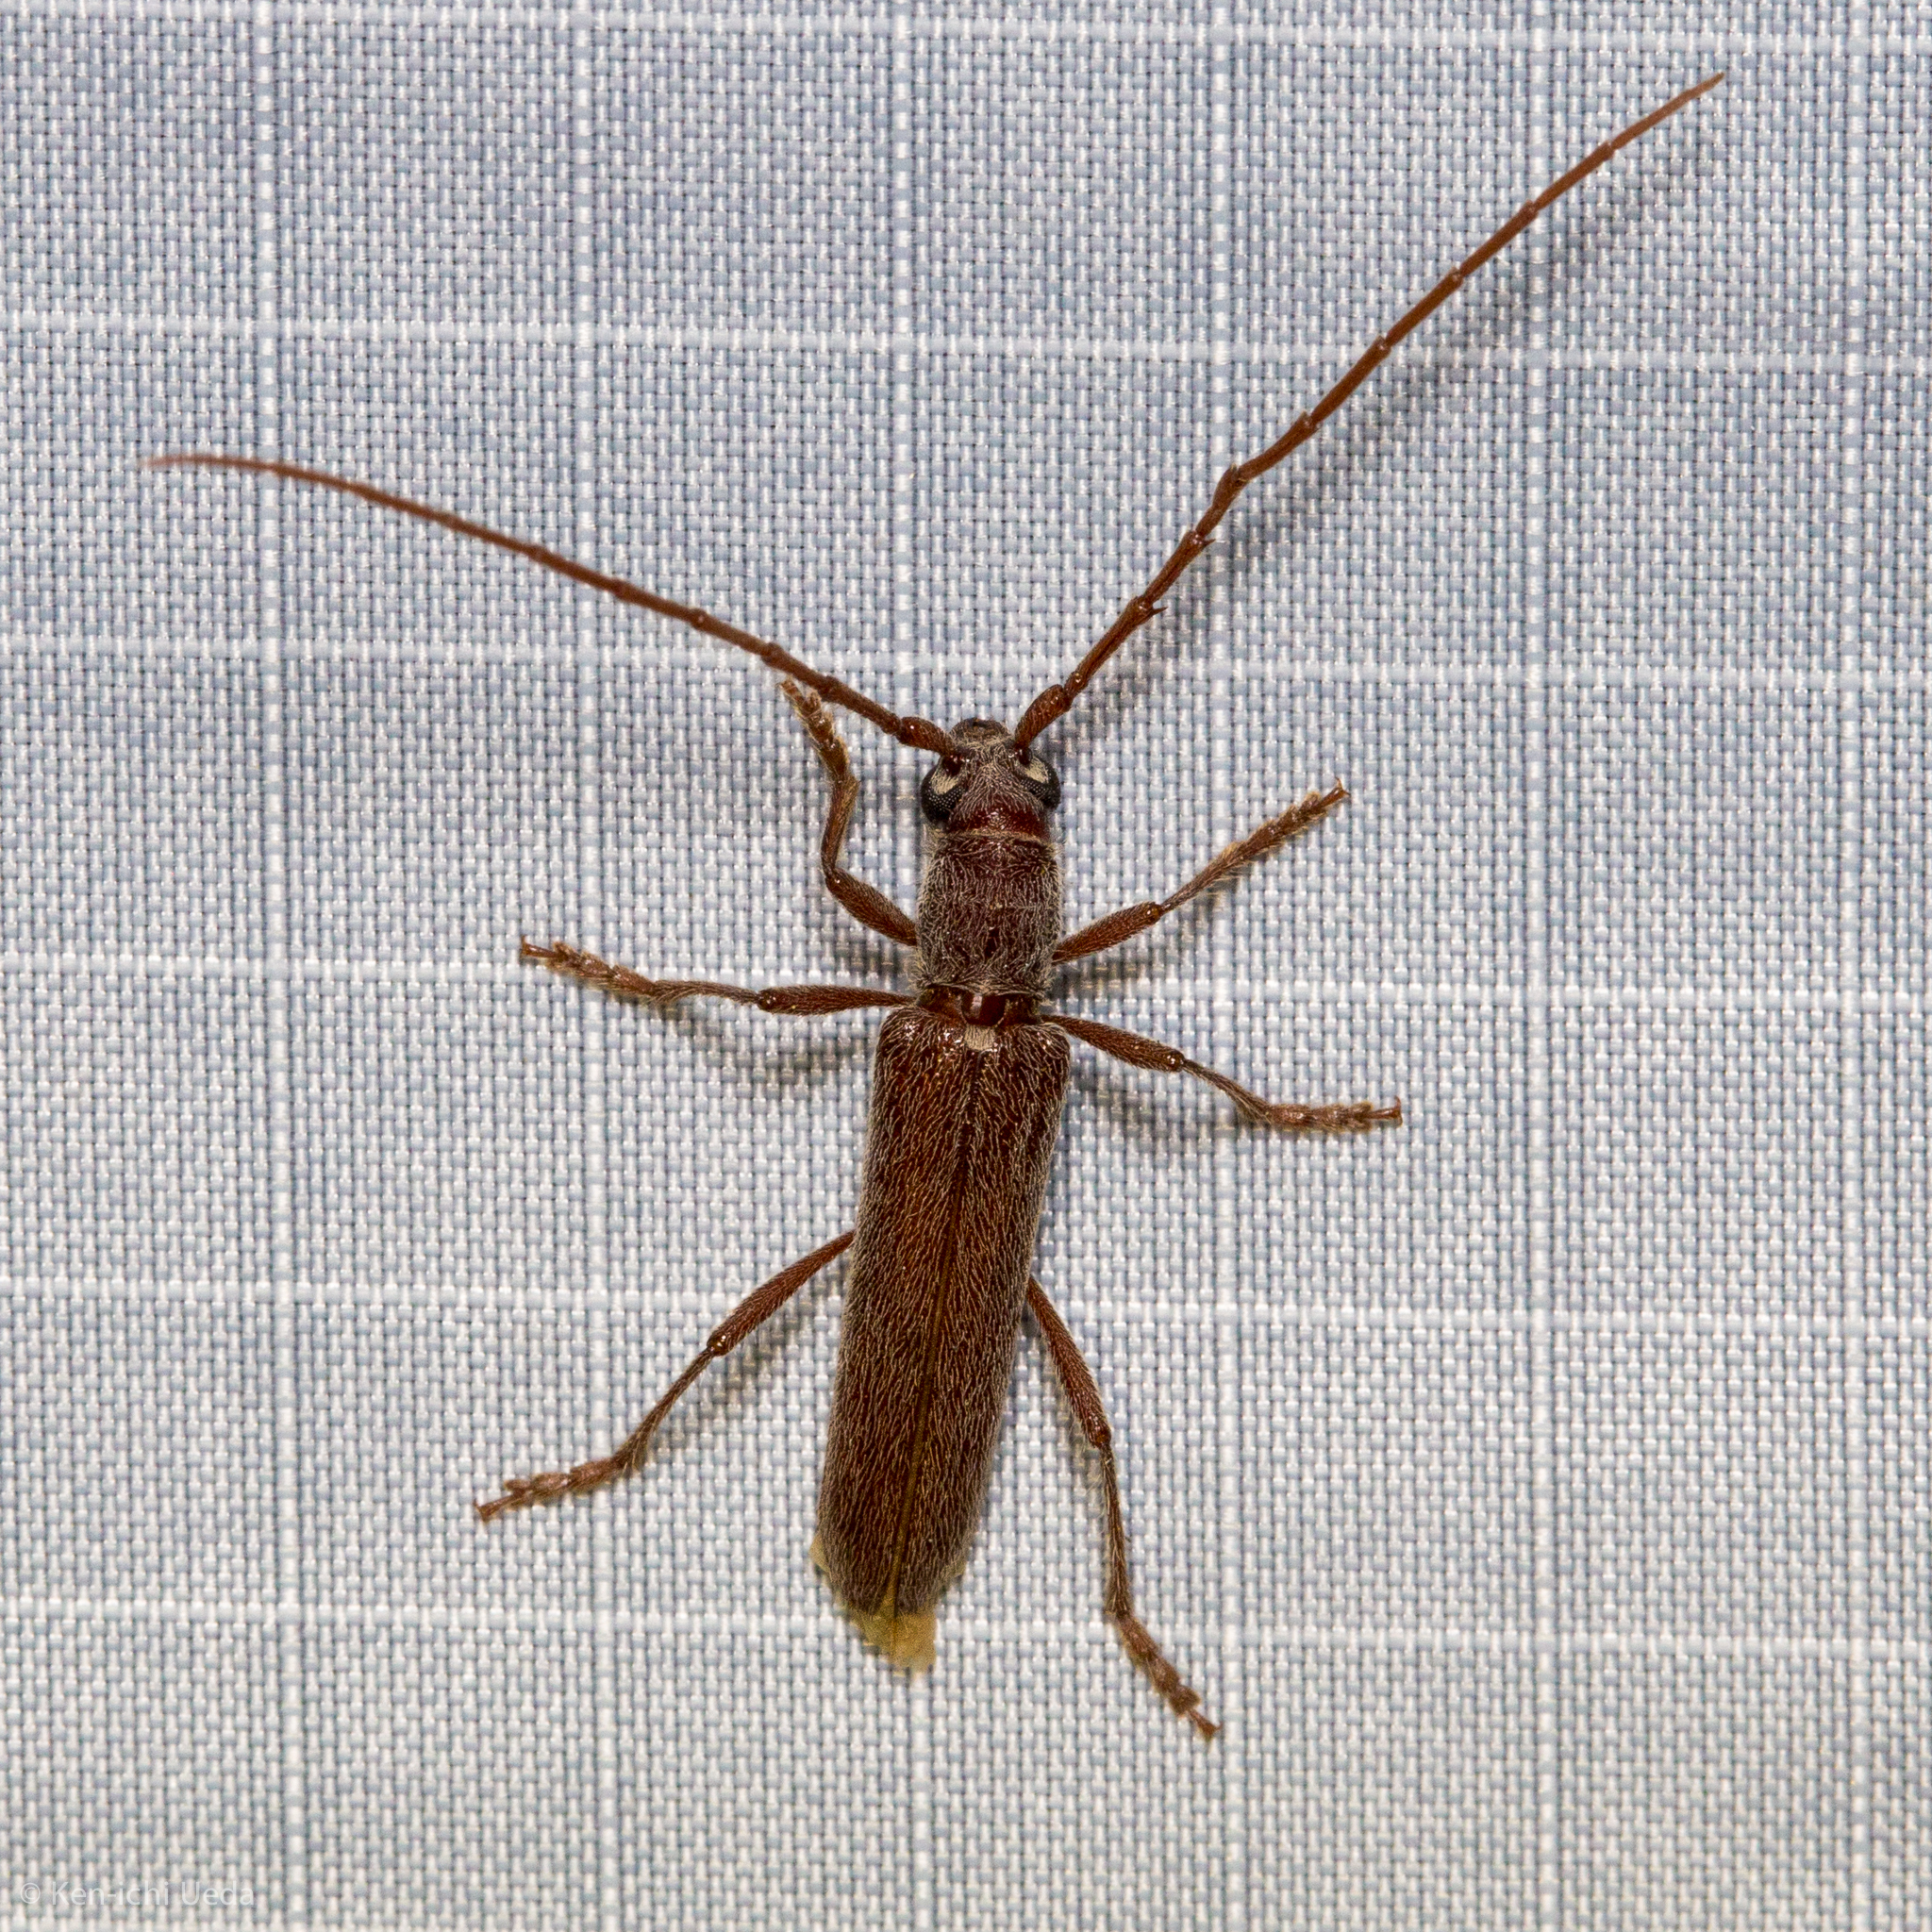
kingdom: Animalia
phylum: Arthropoda
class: Insecta
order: Coleoptera
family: Cerambycidae
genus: Aneflomorpha
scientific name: Aneflomorpha lineare
